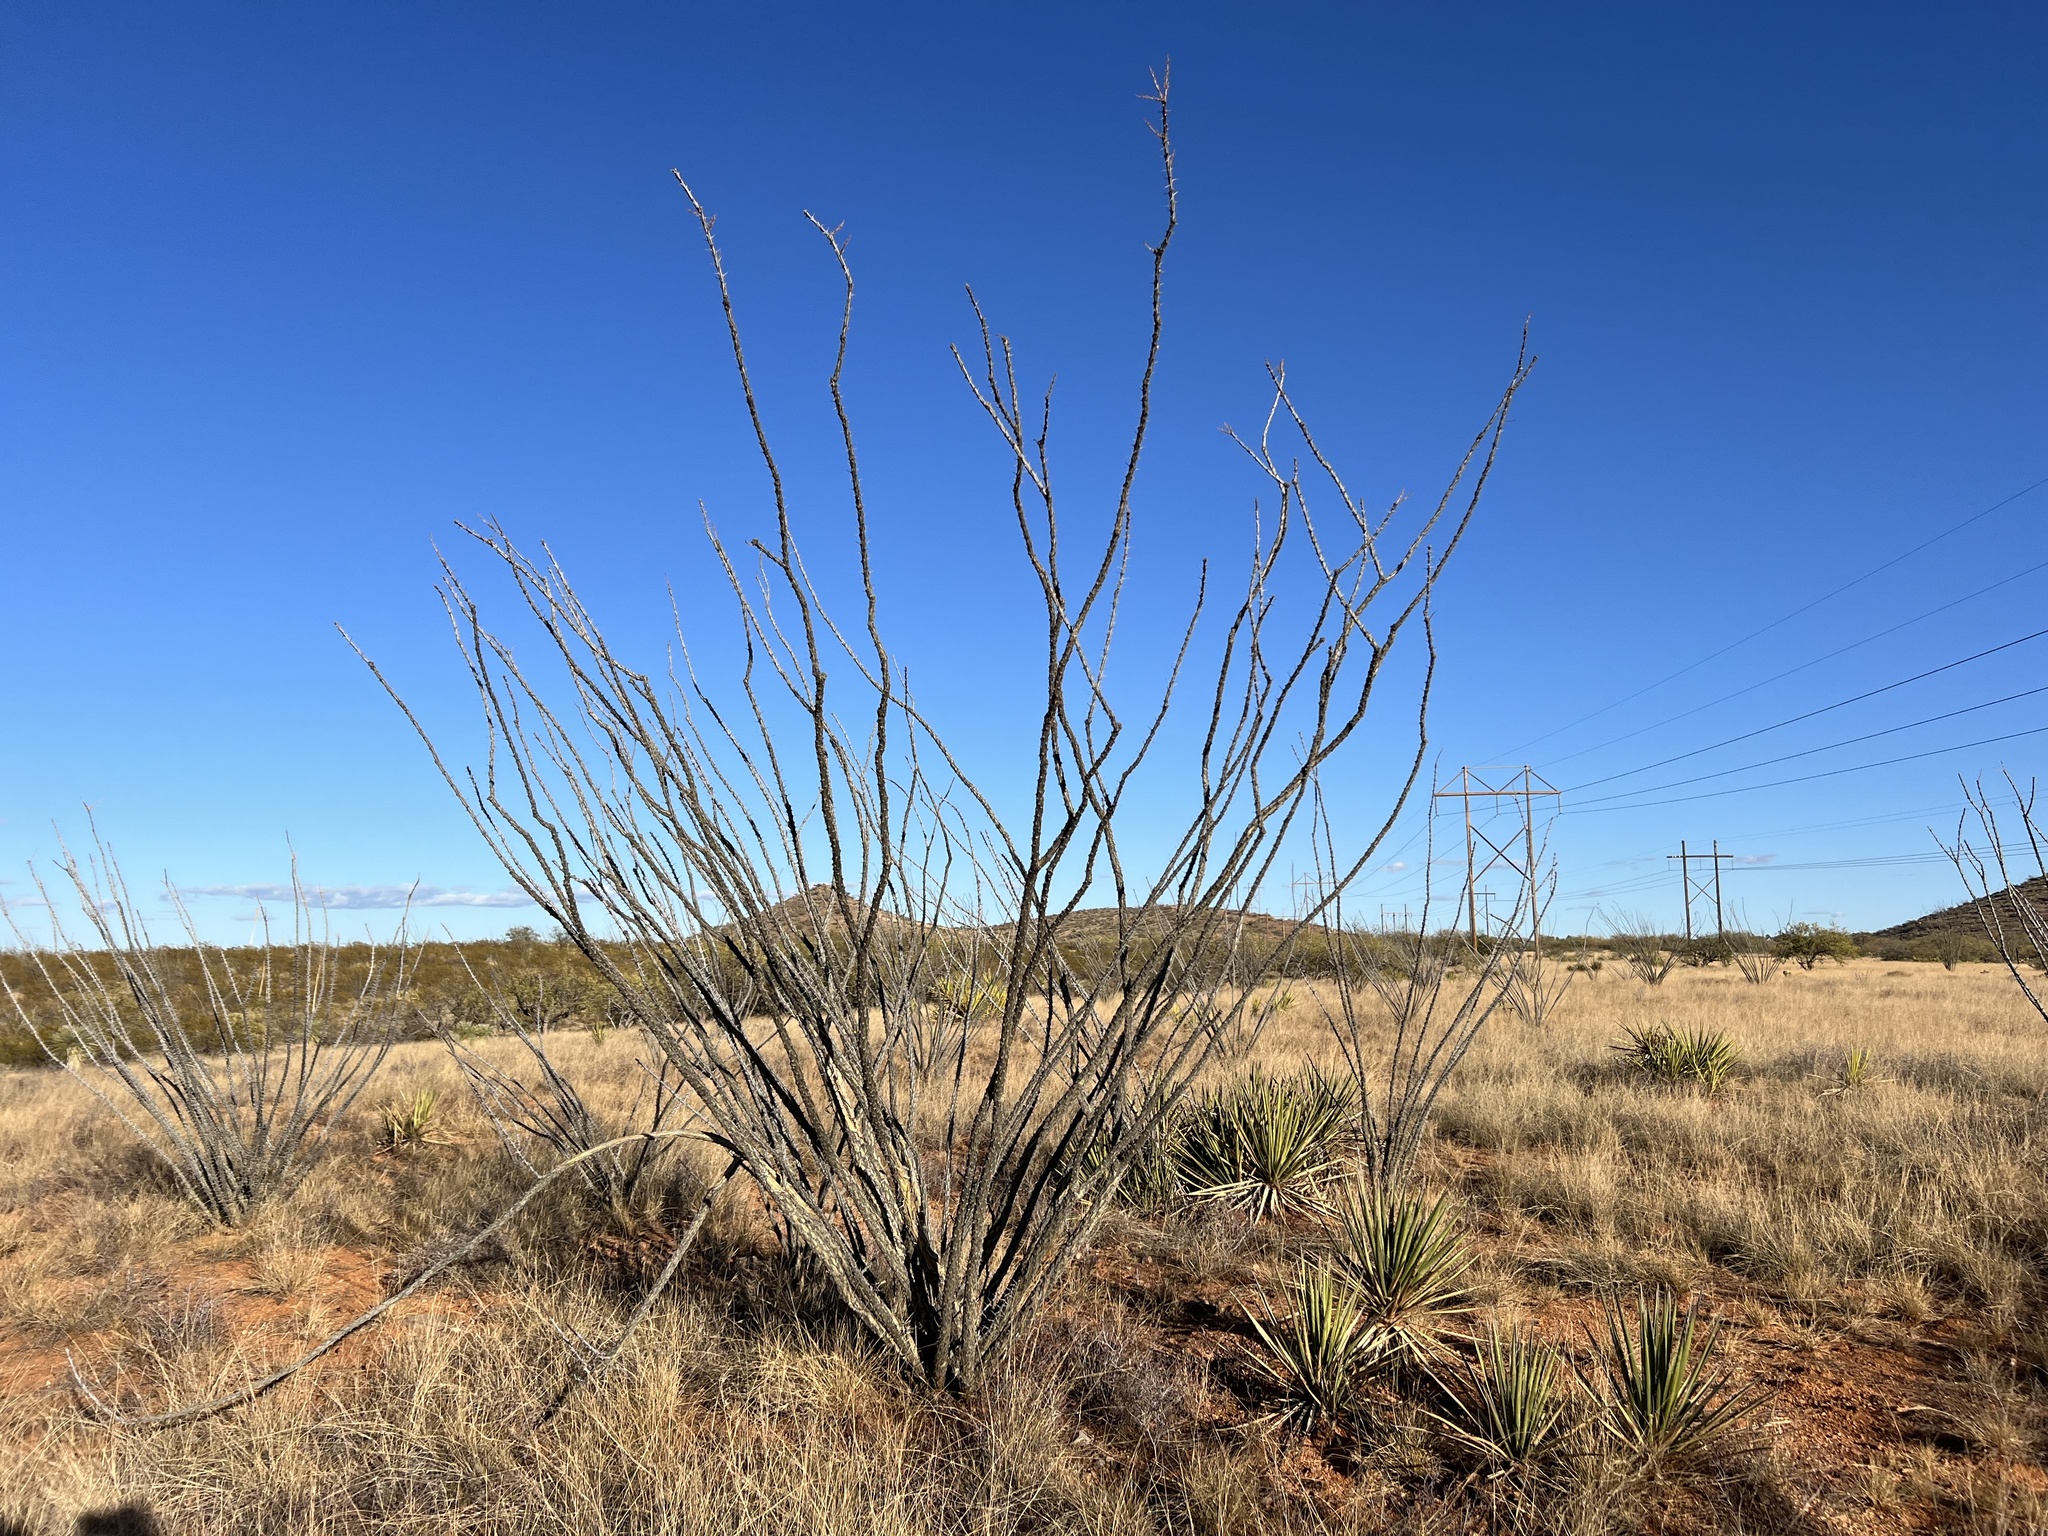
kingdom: Plantae
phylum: Tracheophyta
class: Magnoliopsida
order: Ericales
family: Fouquieriaceae
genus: Fouquieria
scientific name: Fouquieria splendens
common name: Vine-cactus
